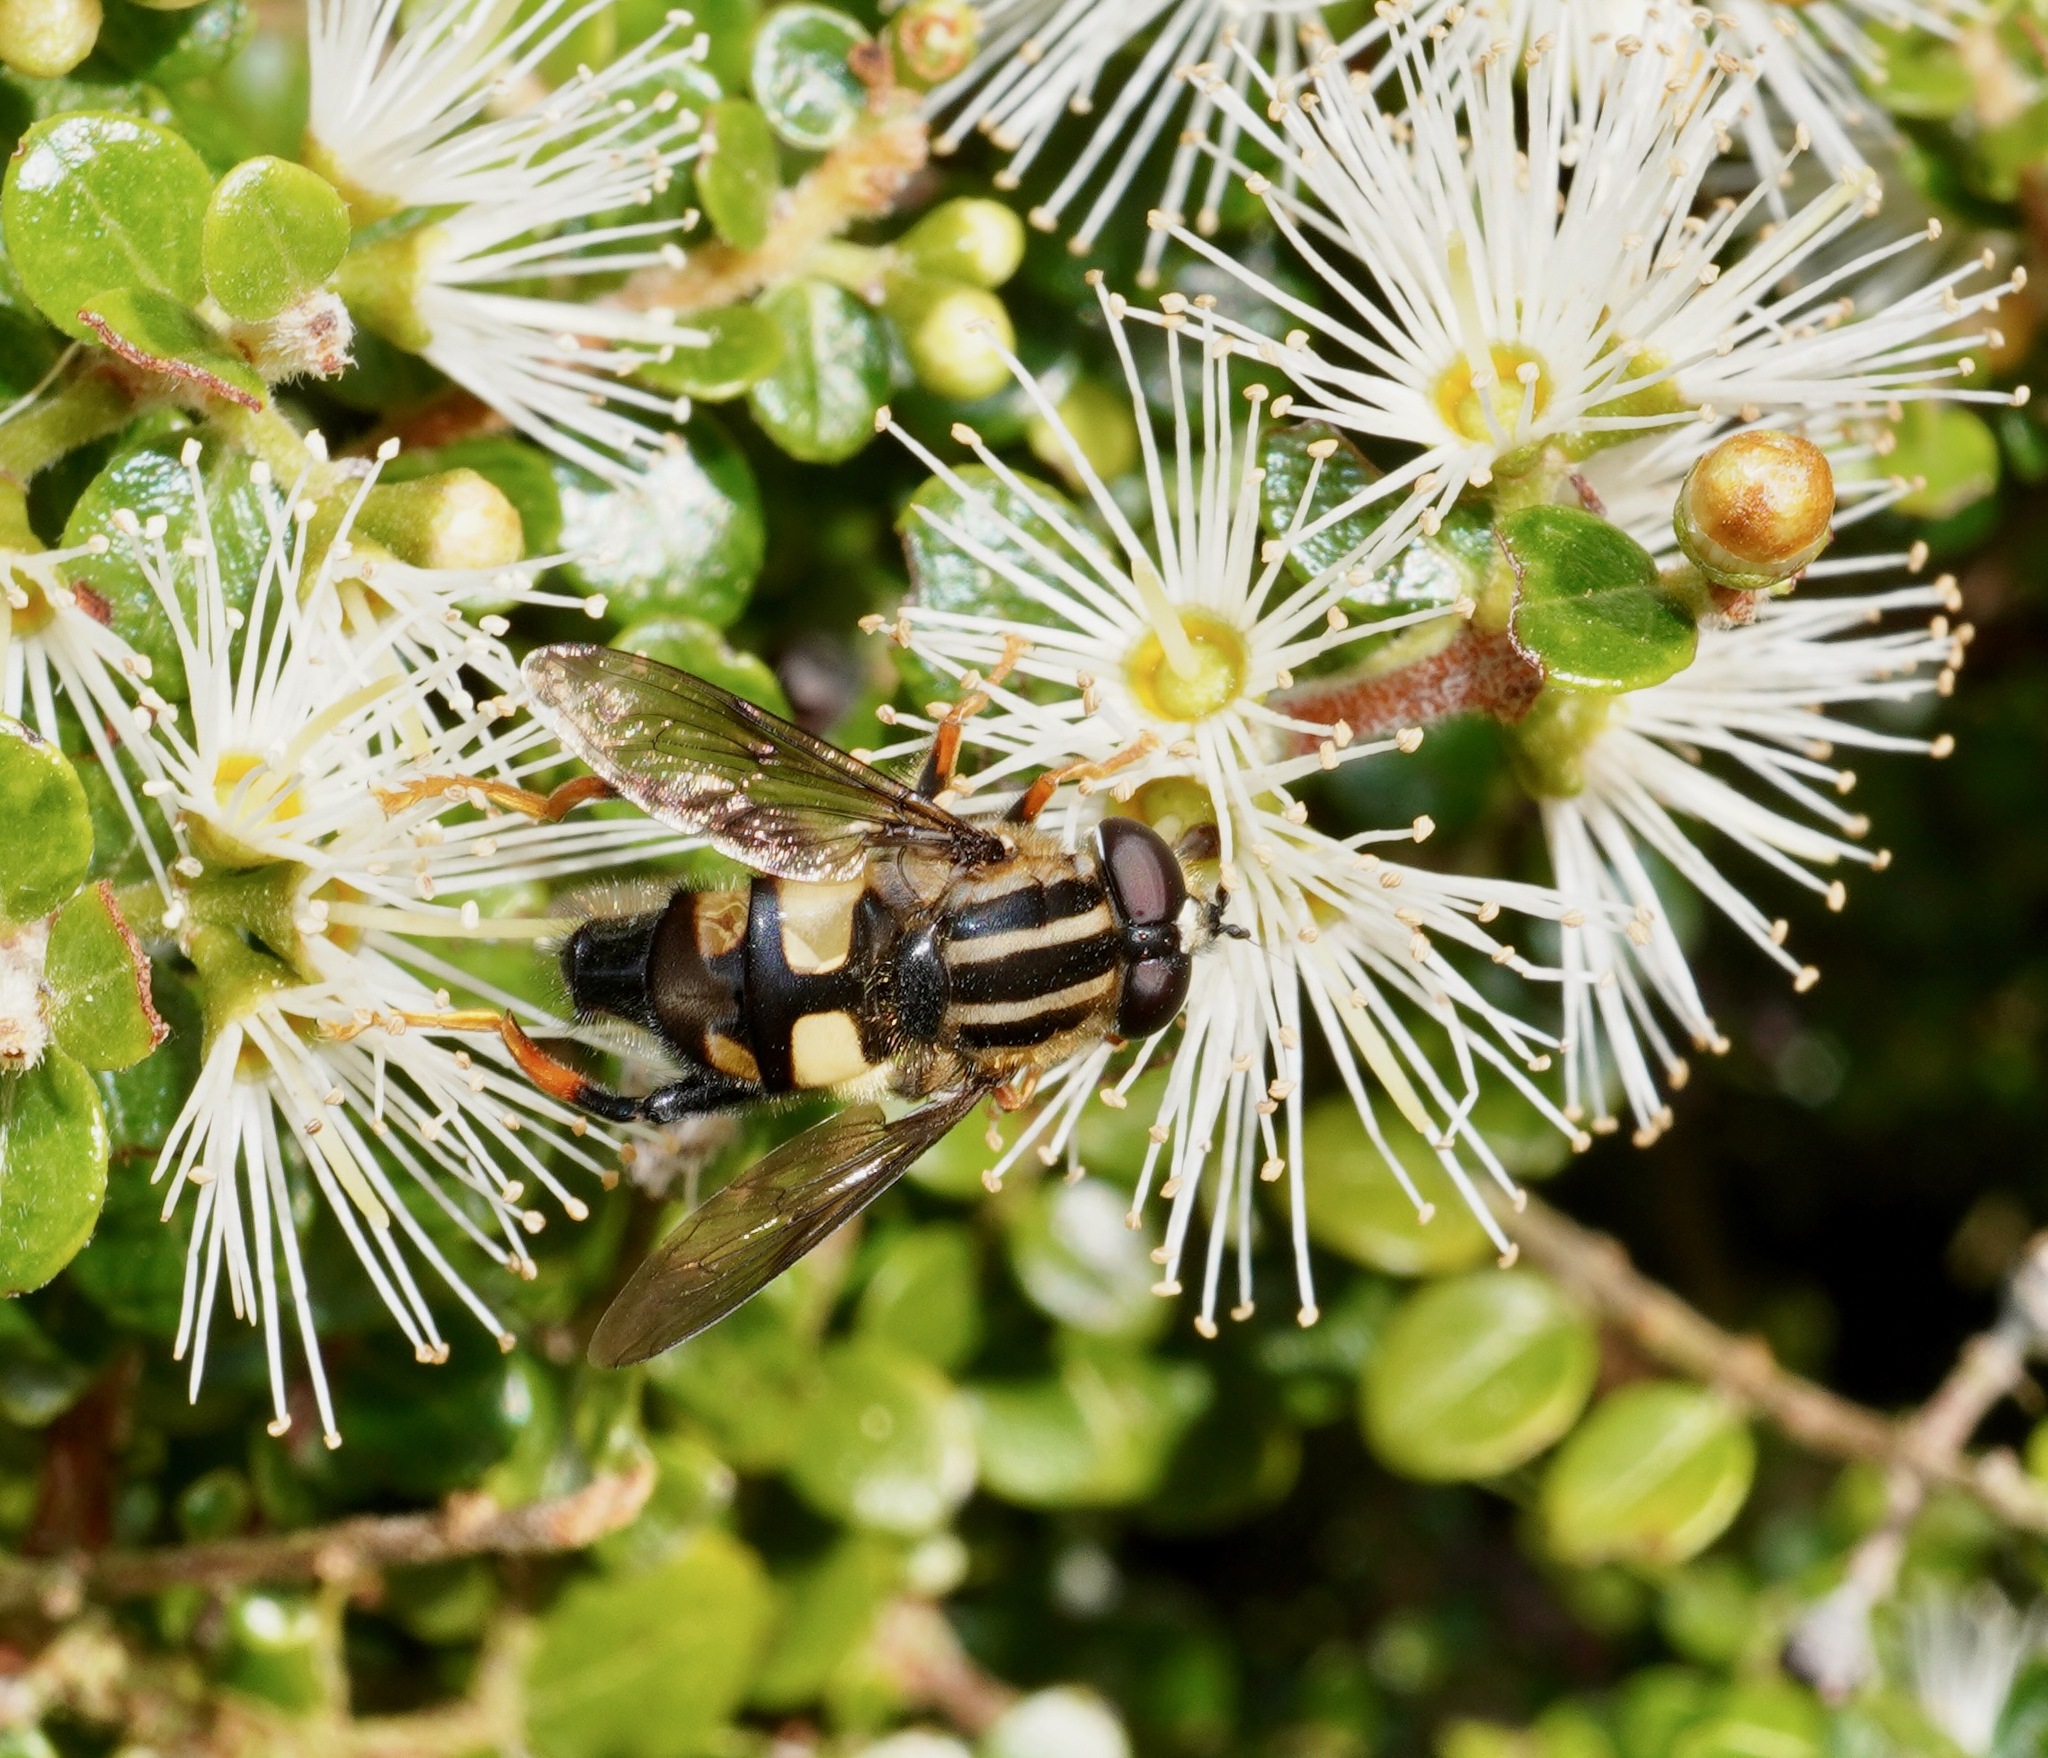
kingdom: Animalia
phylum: Arthropoda
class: Insecta
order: Diptera
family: Syrphidae
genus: Helophilus
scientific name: Helophilus seelandicus
